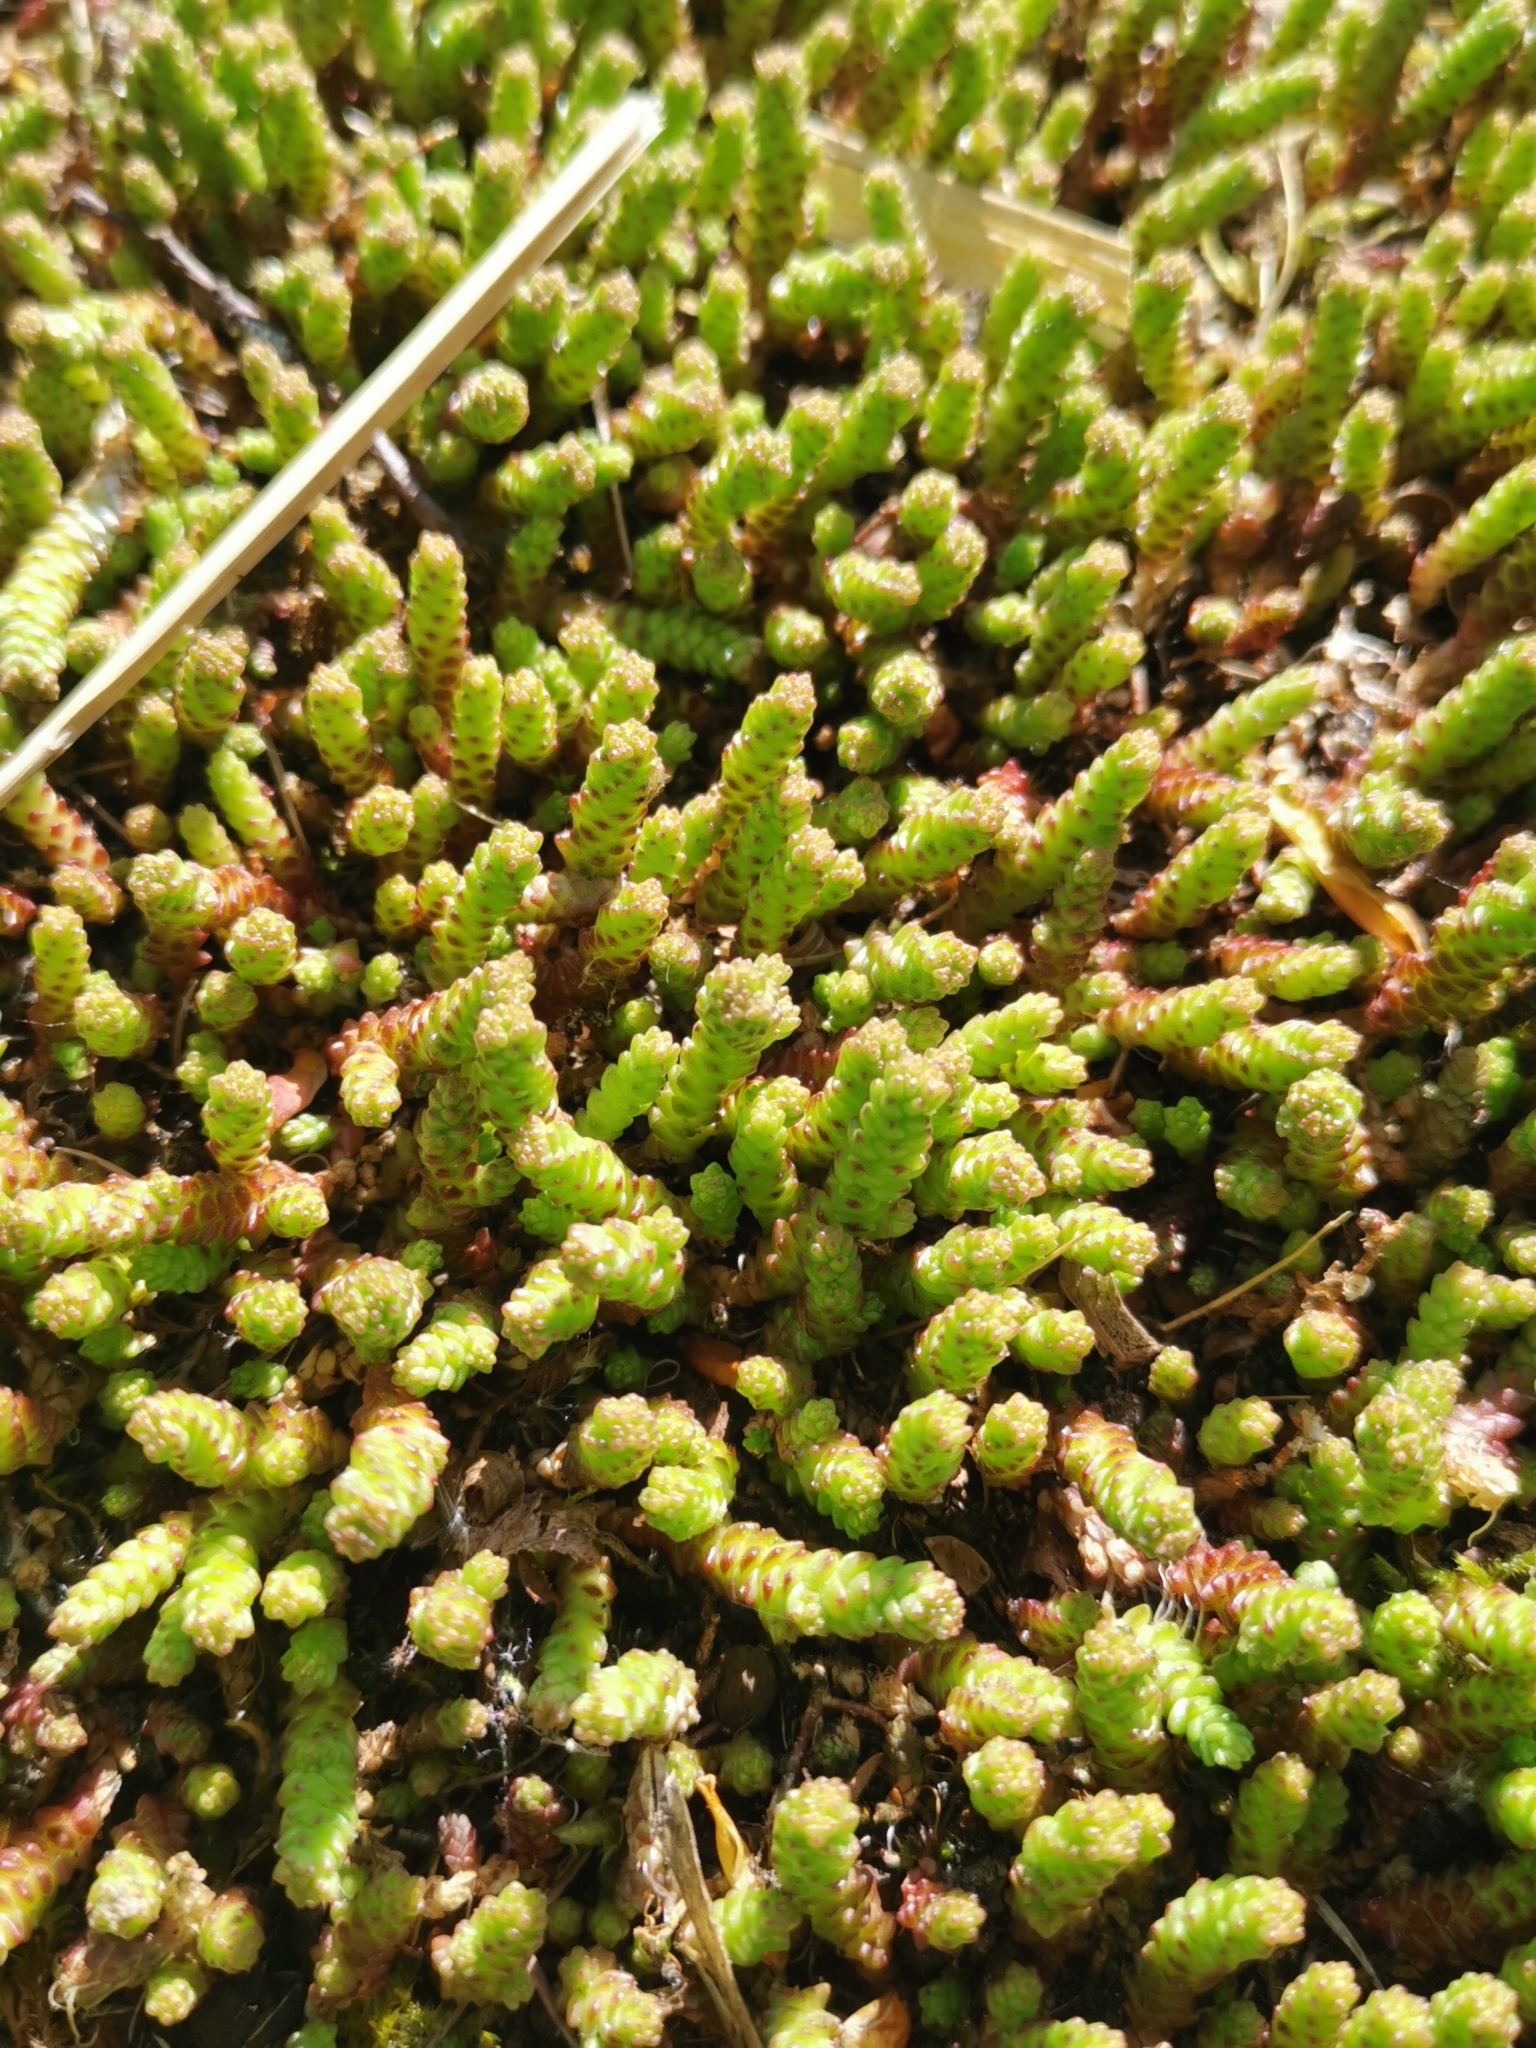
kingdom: Plantae
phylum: Tracheophyta
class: Magnoliopsida
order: Saxifragales
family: Crassulaceae
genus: Sedum
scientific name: Sedum acre
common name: Biting stonecrop
